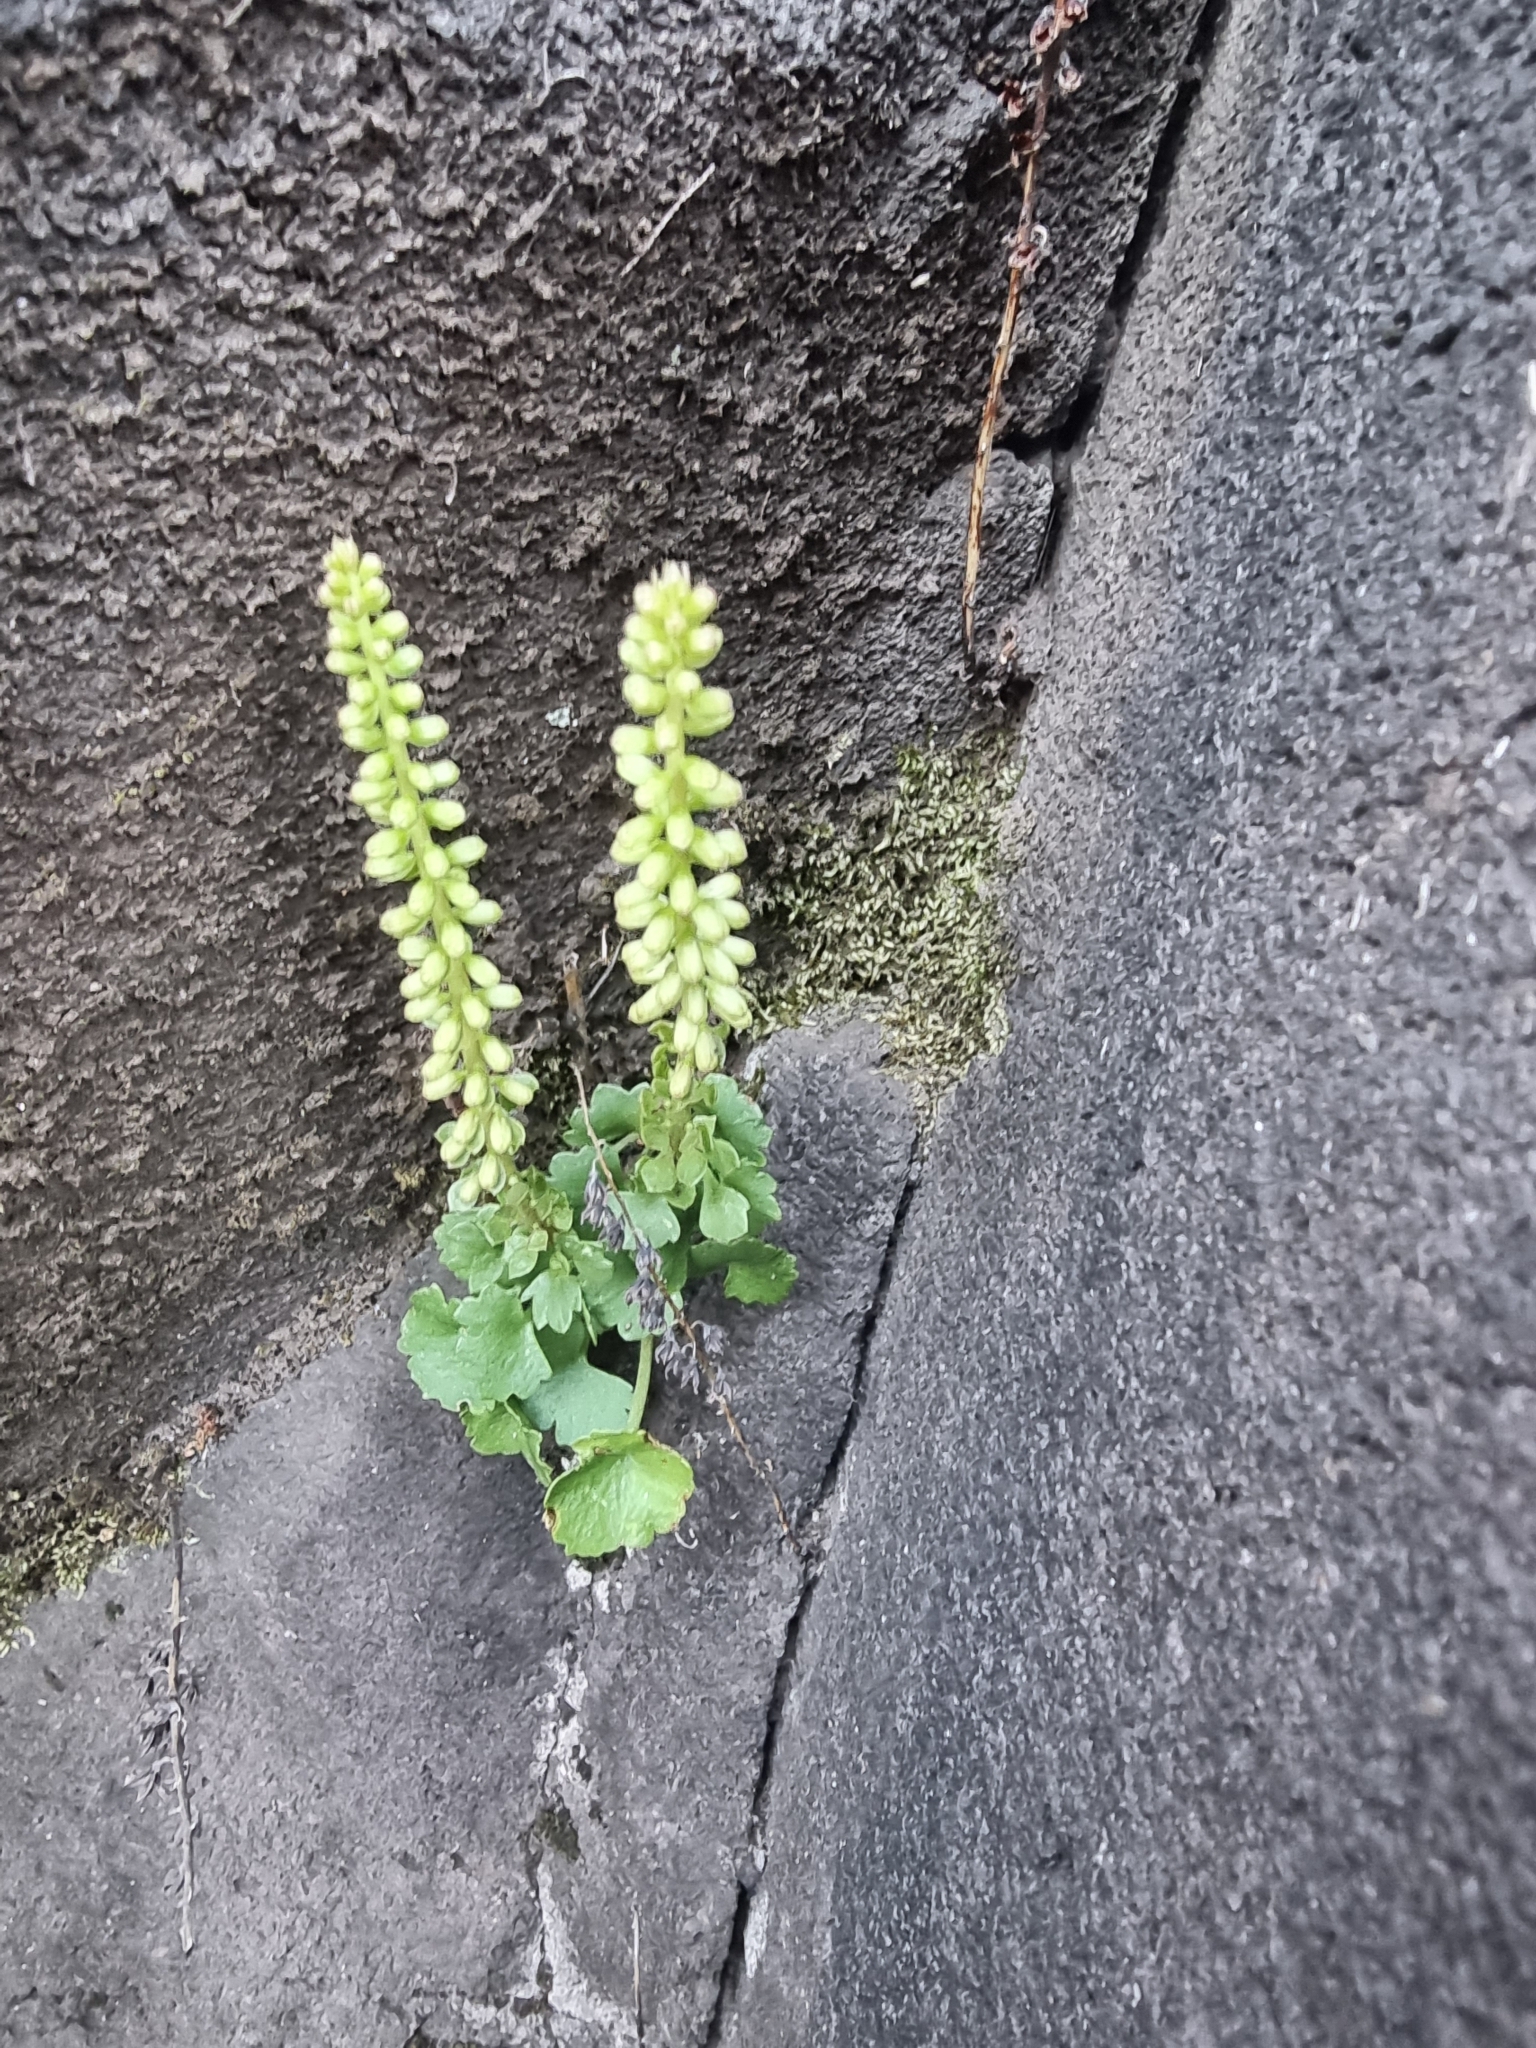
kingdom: Plantae
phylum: Tracheophyta
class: Magnoliopsida
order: Saxifragales
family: Crassulaceae
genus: Umbilicus
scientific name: Umbilicus rupestris
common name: Navelwort
